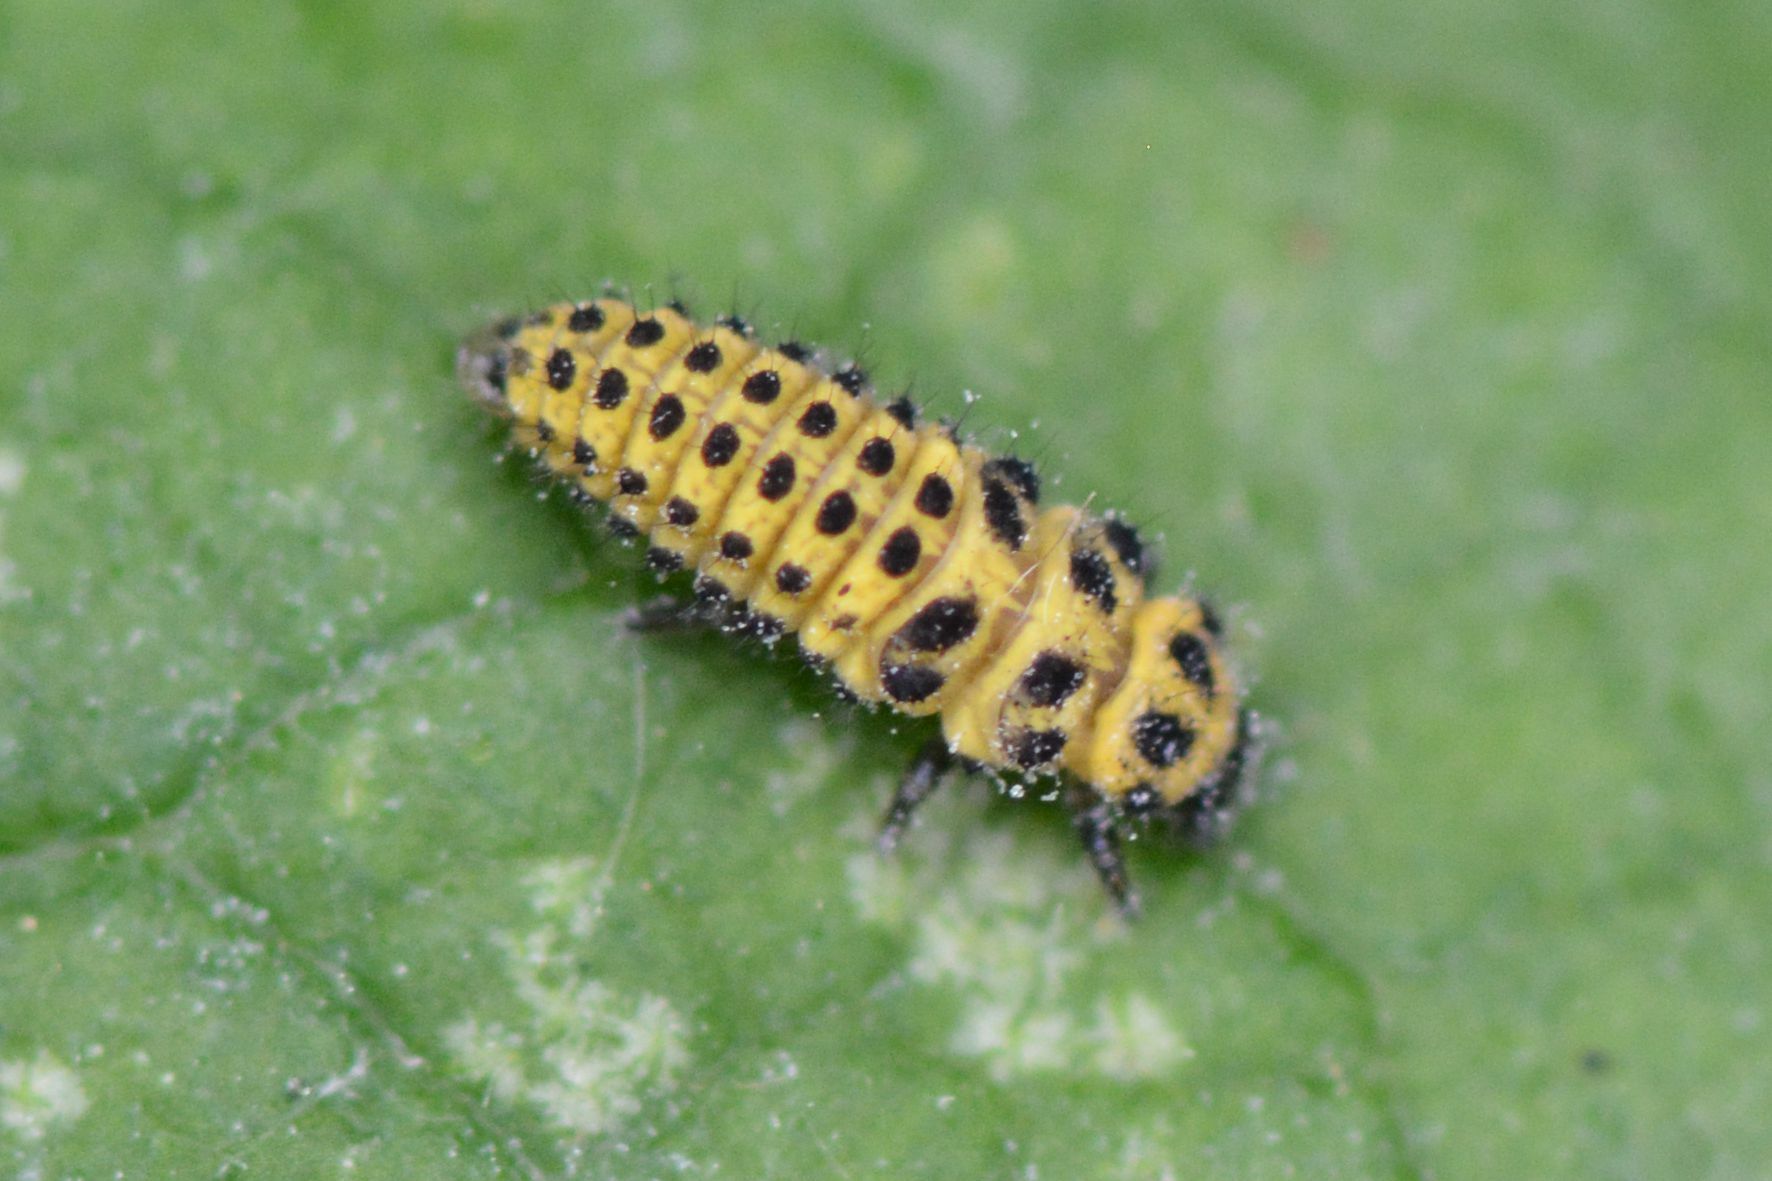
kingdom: Animalia
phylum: Arthropoda
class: Insecta
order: Coleoptera
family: Coccinellidae
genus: Psyllobora
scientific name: Psyllobora vigintiduopunctata
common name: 22-spot ladybird
